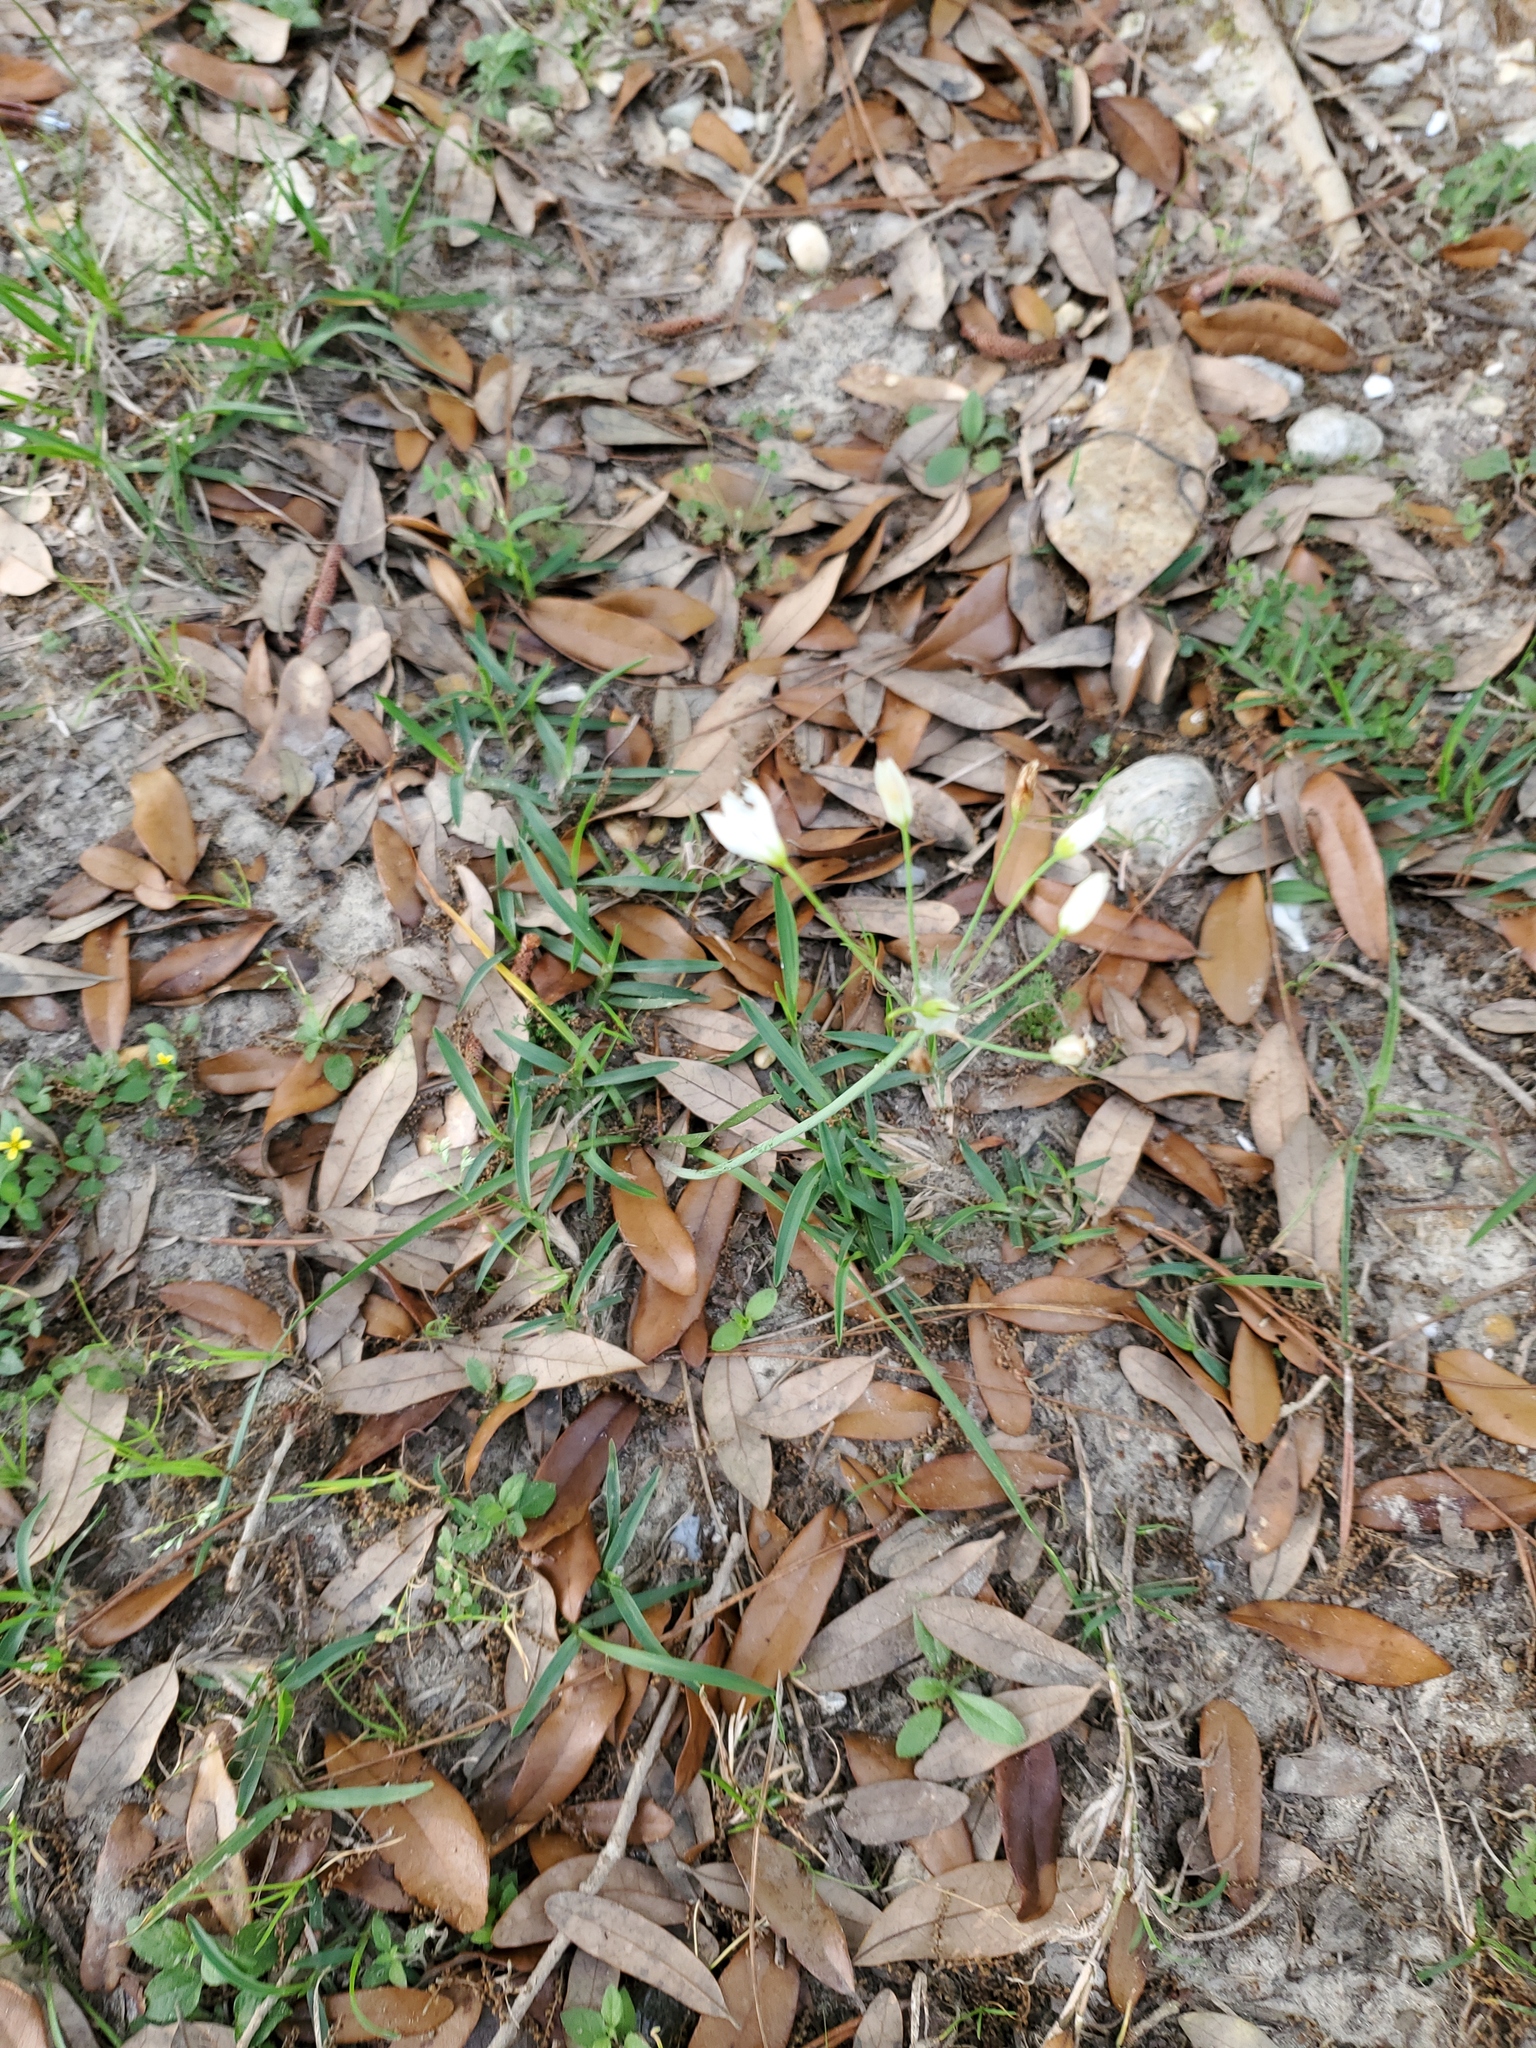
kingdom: Plantae
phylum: Tracheophyta
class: Liliopsida
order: Asparagales
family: Amaryllidaceae
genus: Nothoscordum
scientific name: Nothoscordum bivalve
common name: Crow-poison
